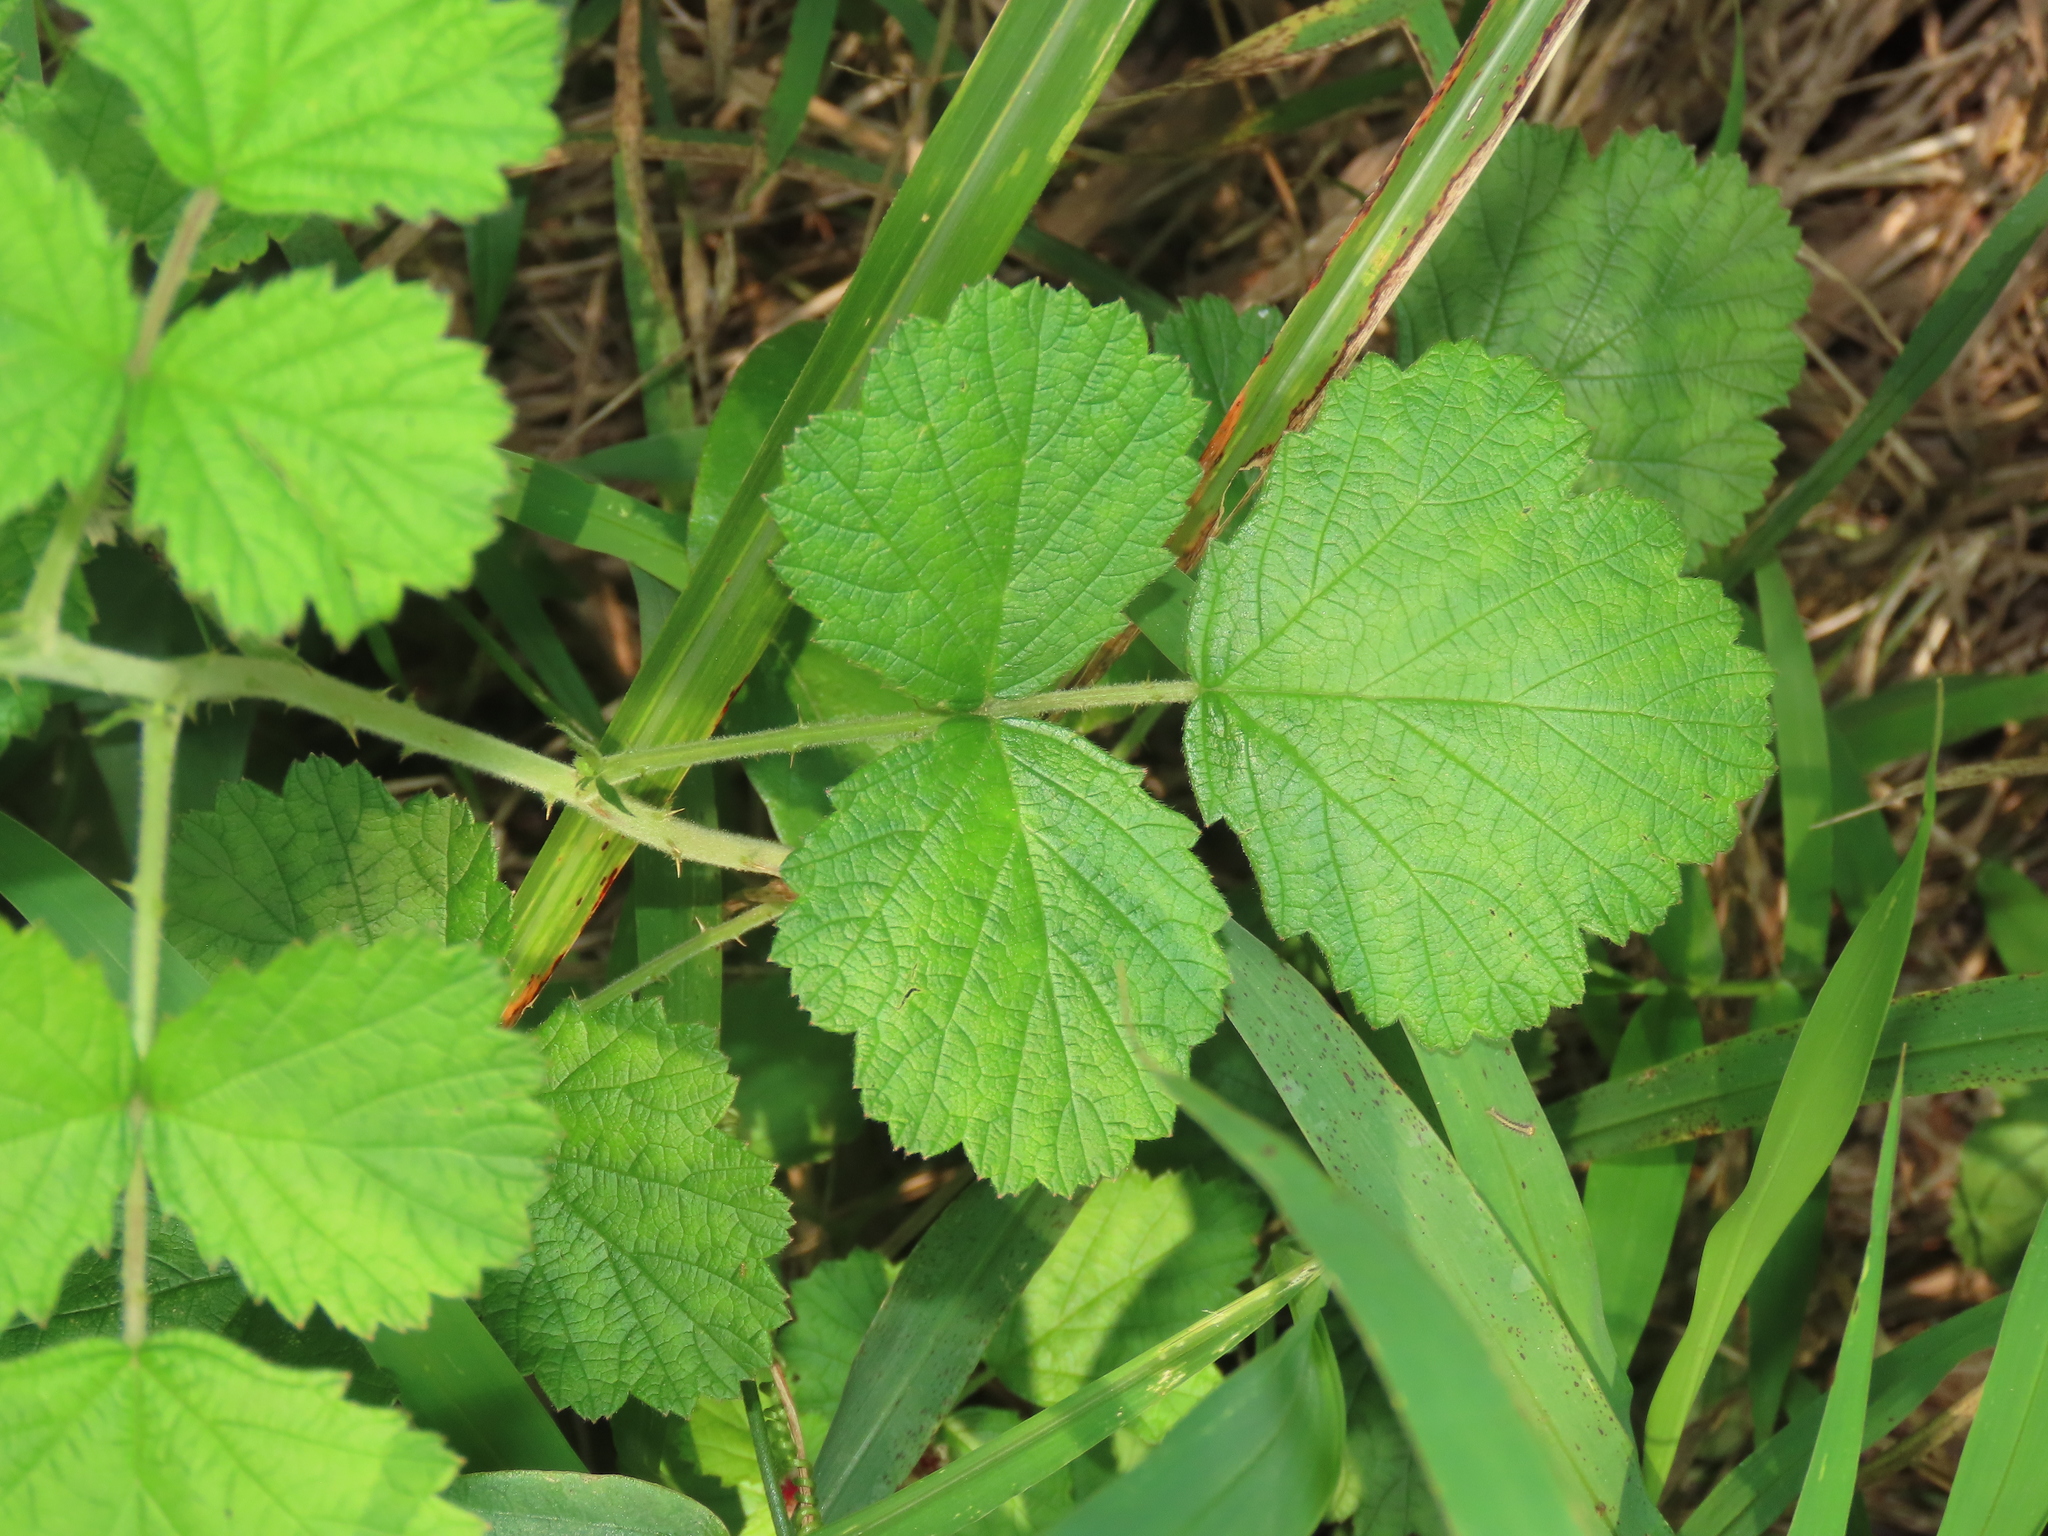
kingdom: Plantae
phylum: Tracheophyta
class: Magnoliopsida
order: Rosales
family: Rosaceae
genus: Rubus
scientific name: Rubus parvifolius
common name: Threeleaf blackberry
